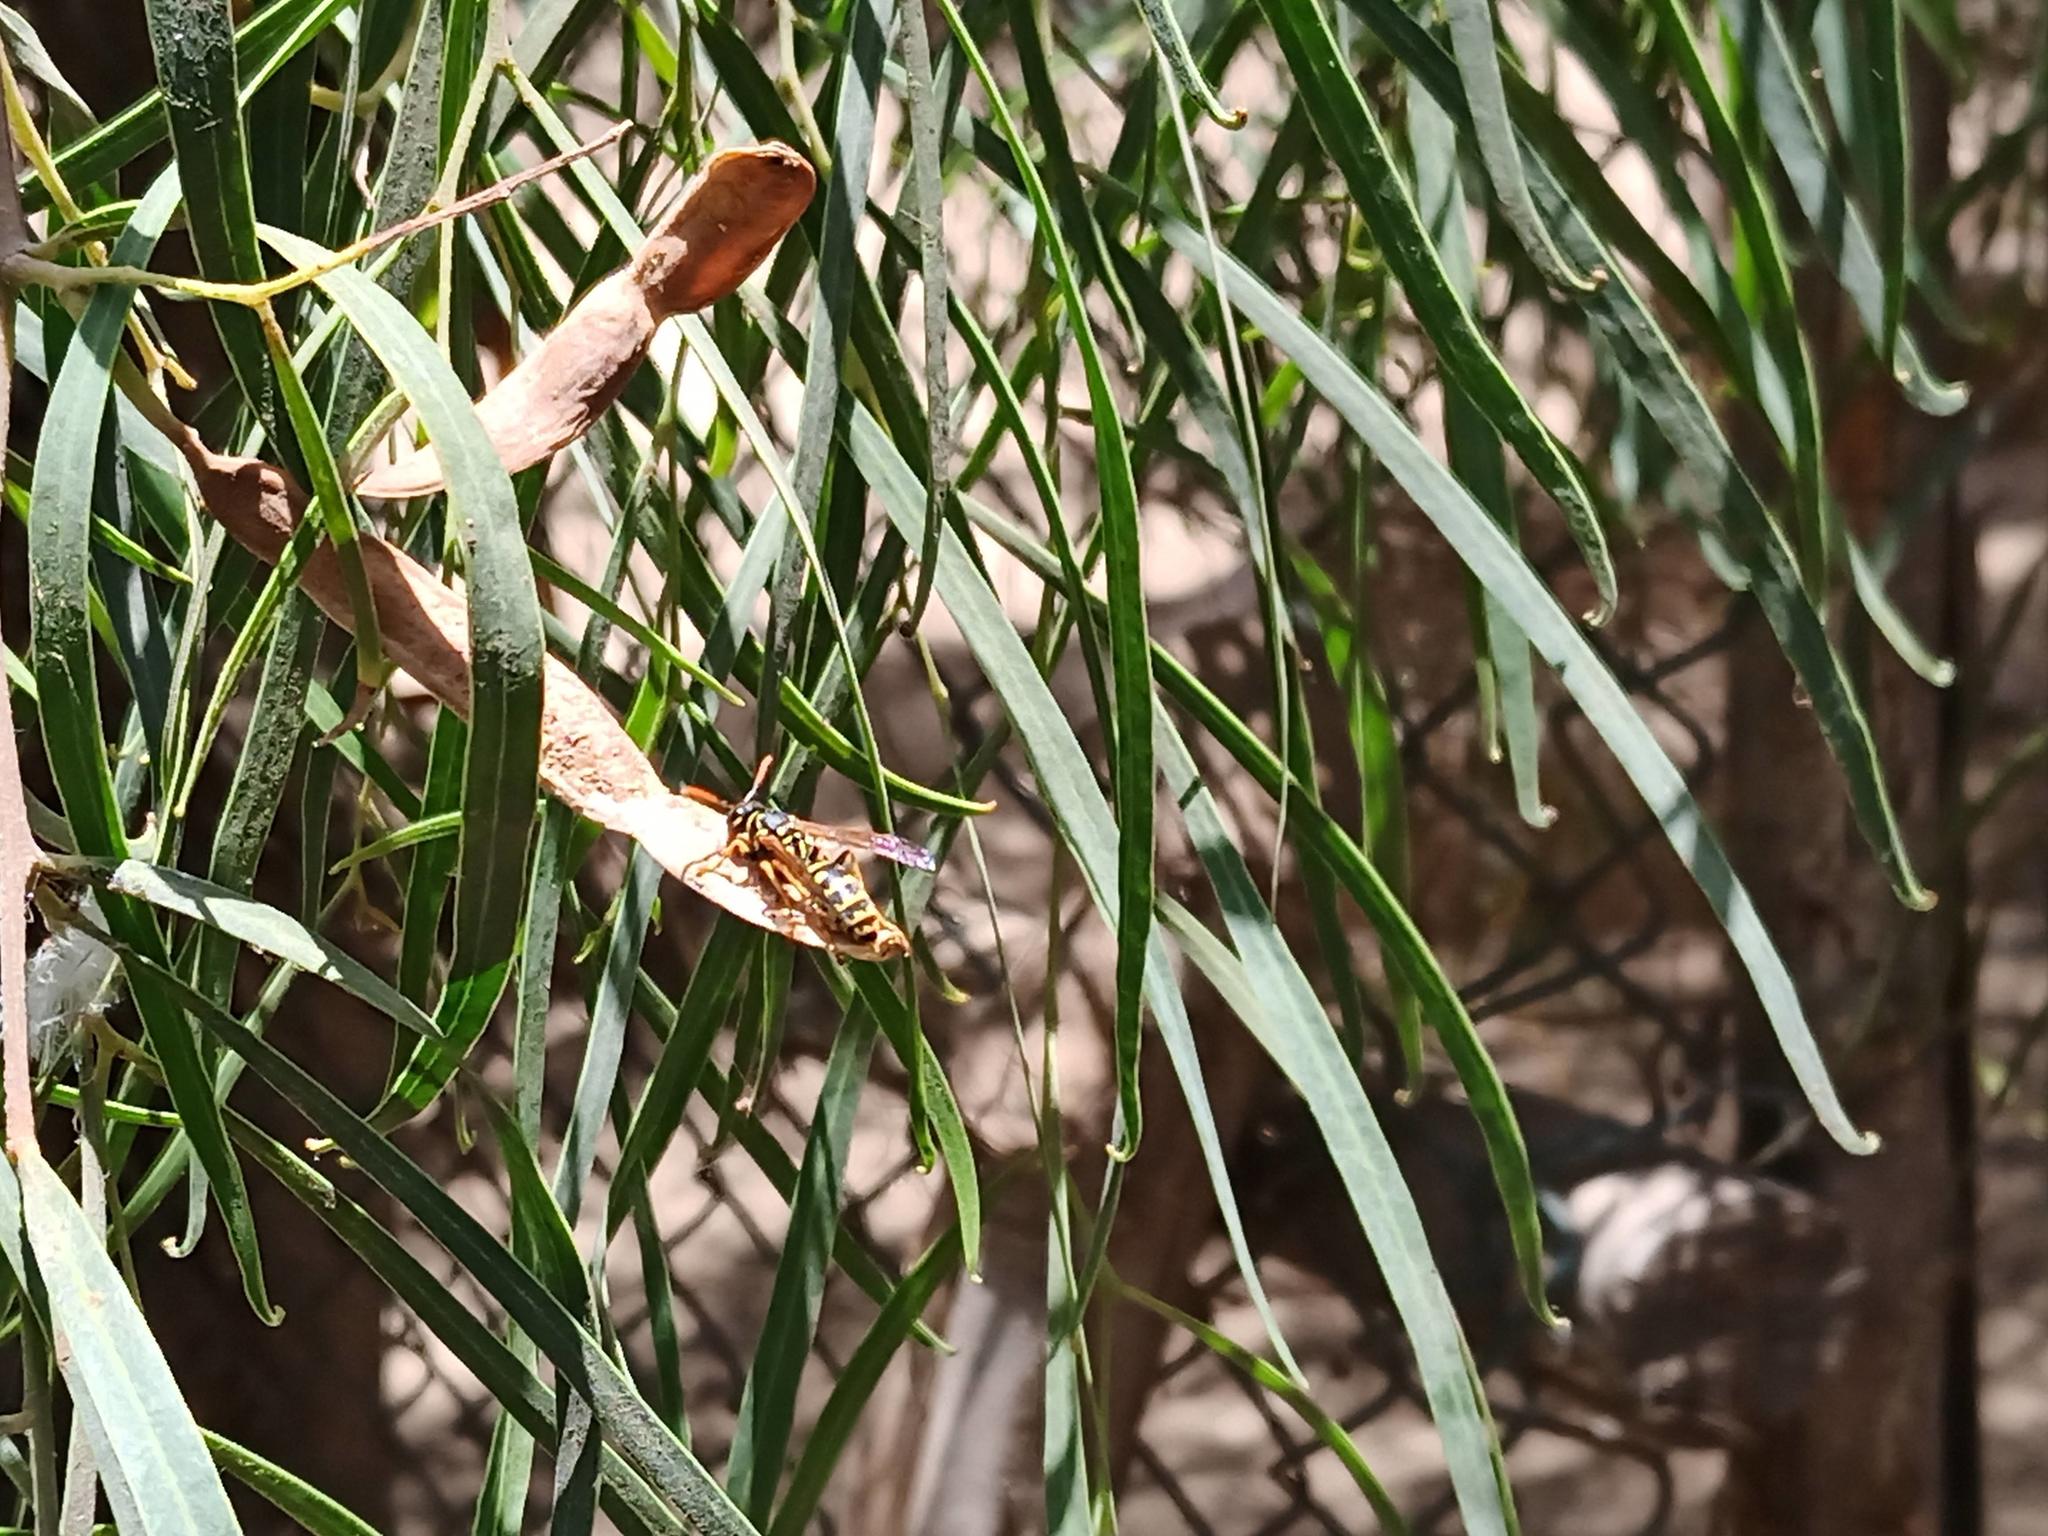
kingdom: Animalia
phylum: Arthropoda
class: Insecta
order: Hymenoptera
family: Eumenidae
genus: Polistes
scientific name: Polistes dominula
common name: Paper wasp
